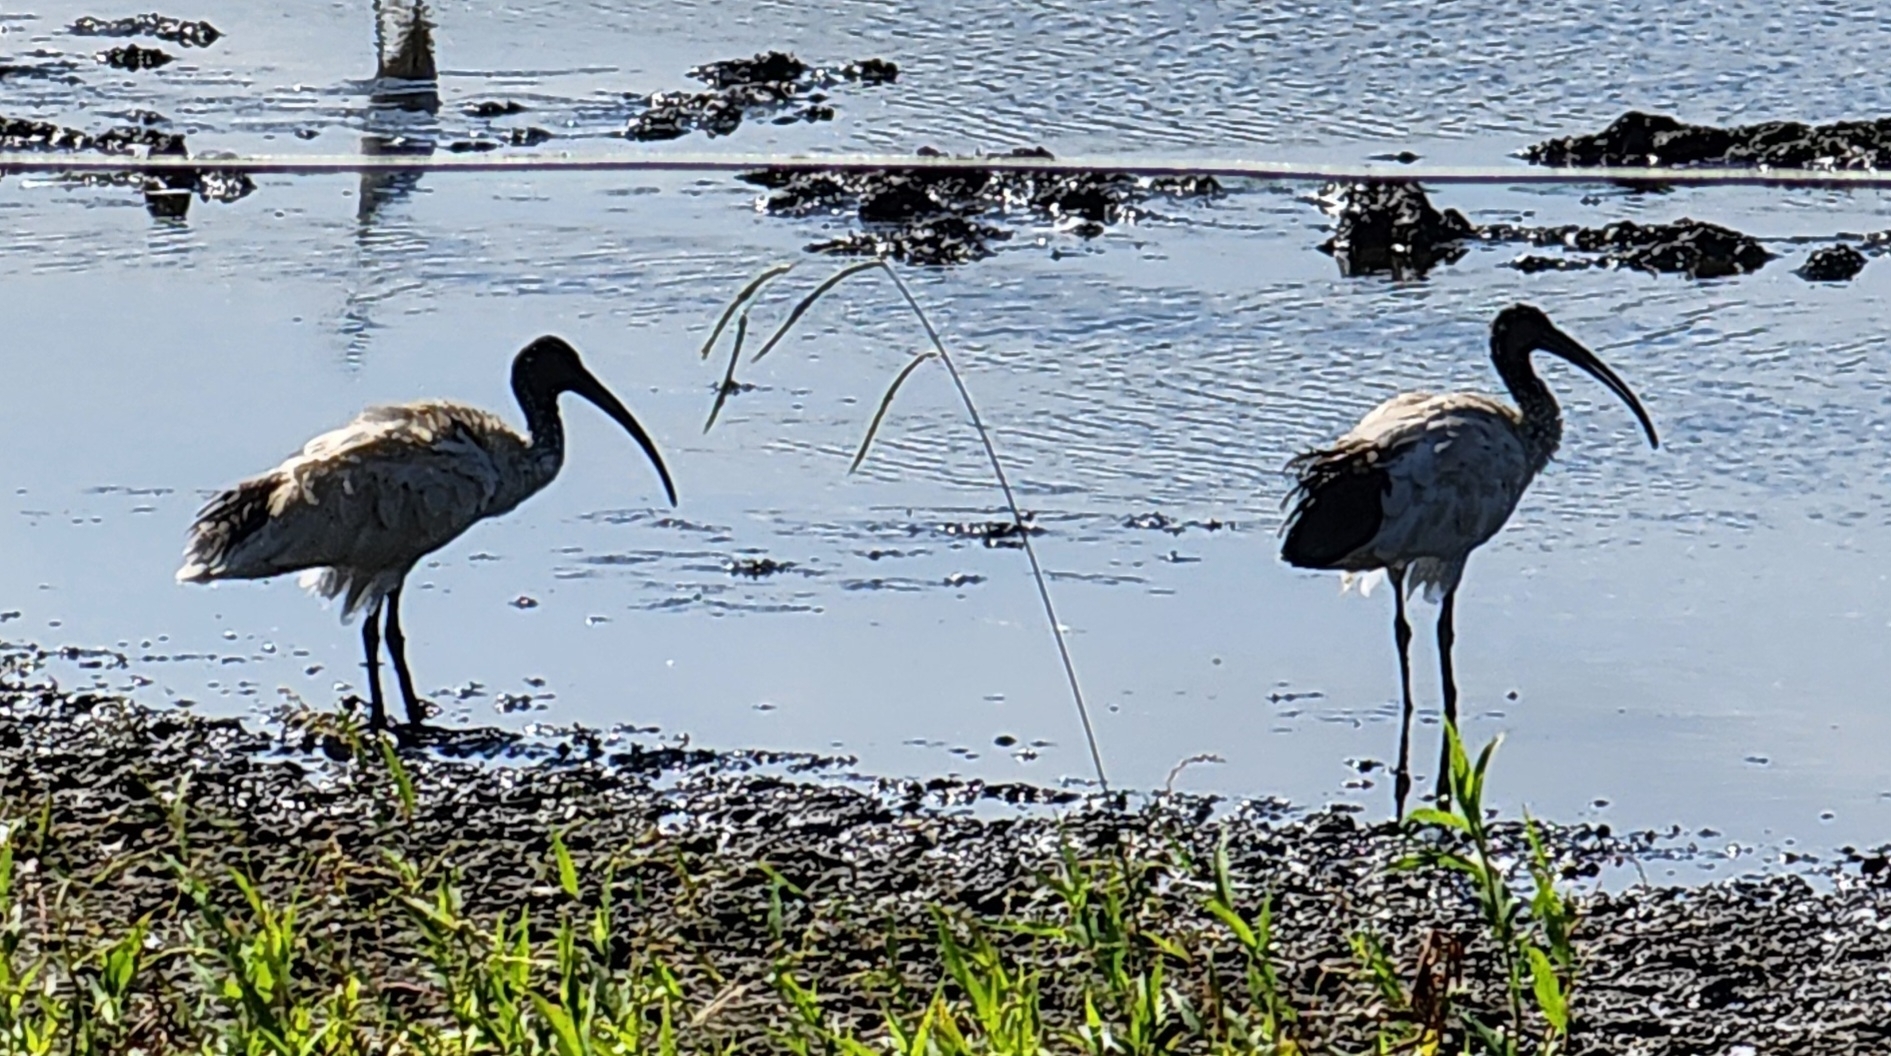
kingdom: Animalia
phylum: Chordata
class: Aves
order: Pelecaniformes
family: Threskiornithidae
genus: Threskiornis
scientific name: Threskiornis molucca
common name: Australian white ibis
